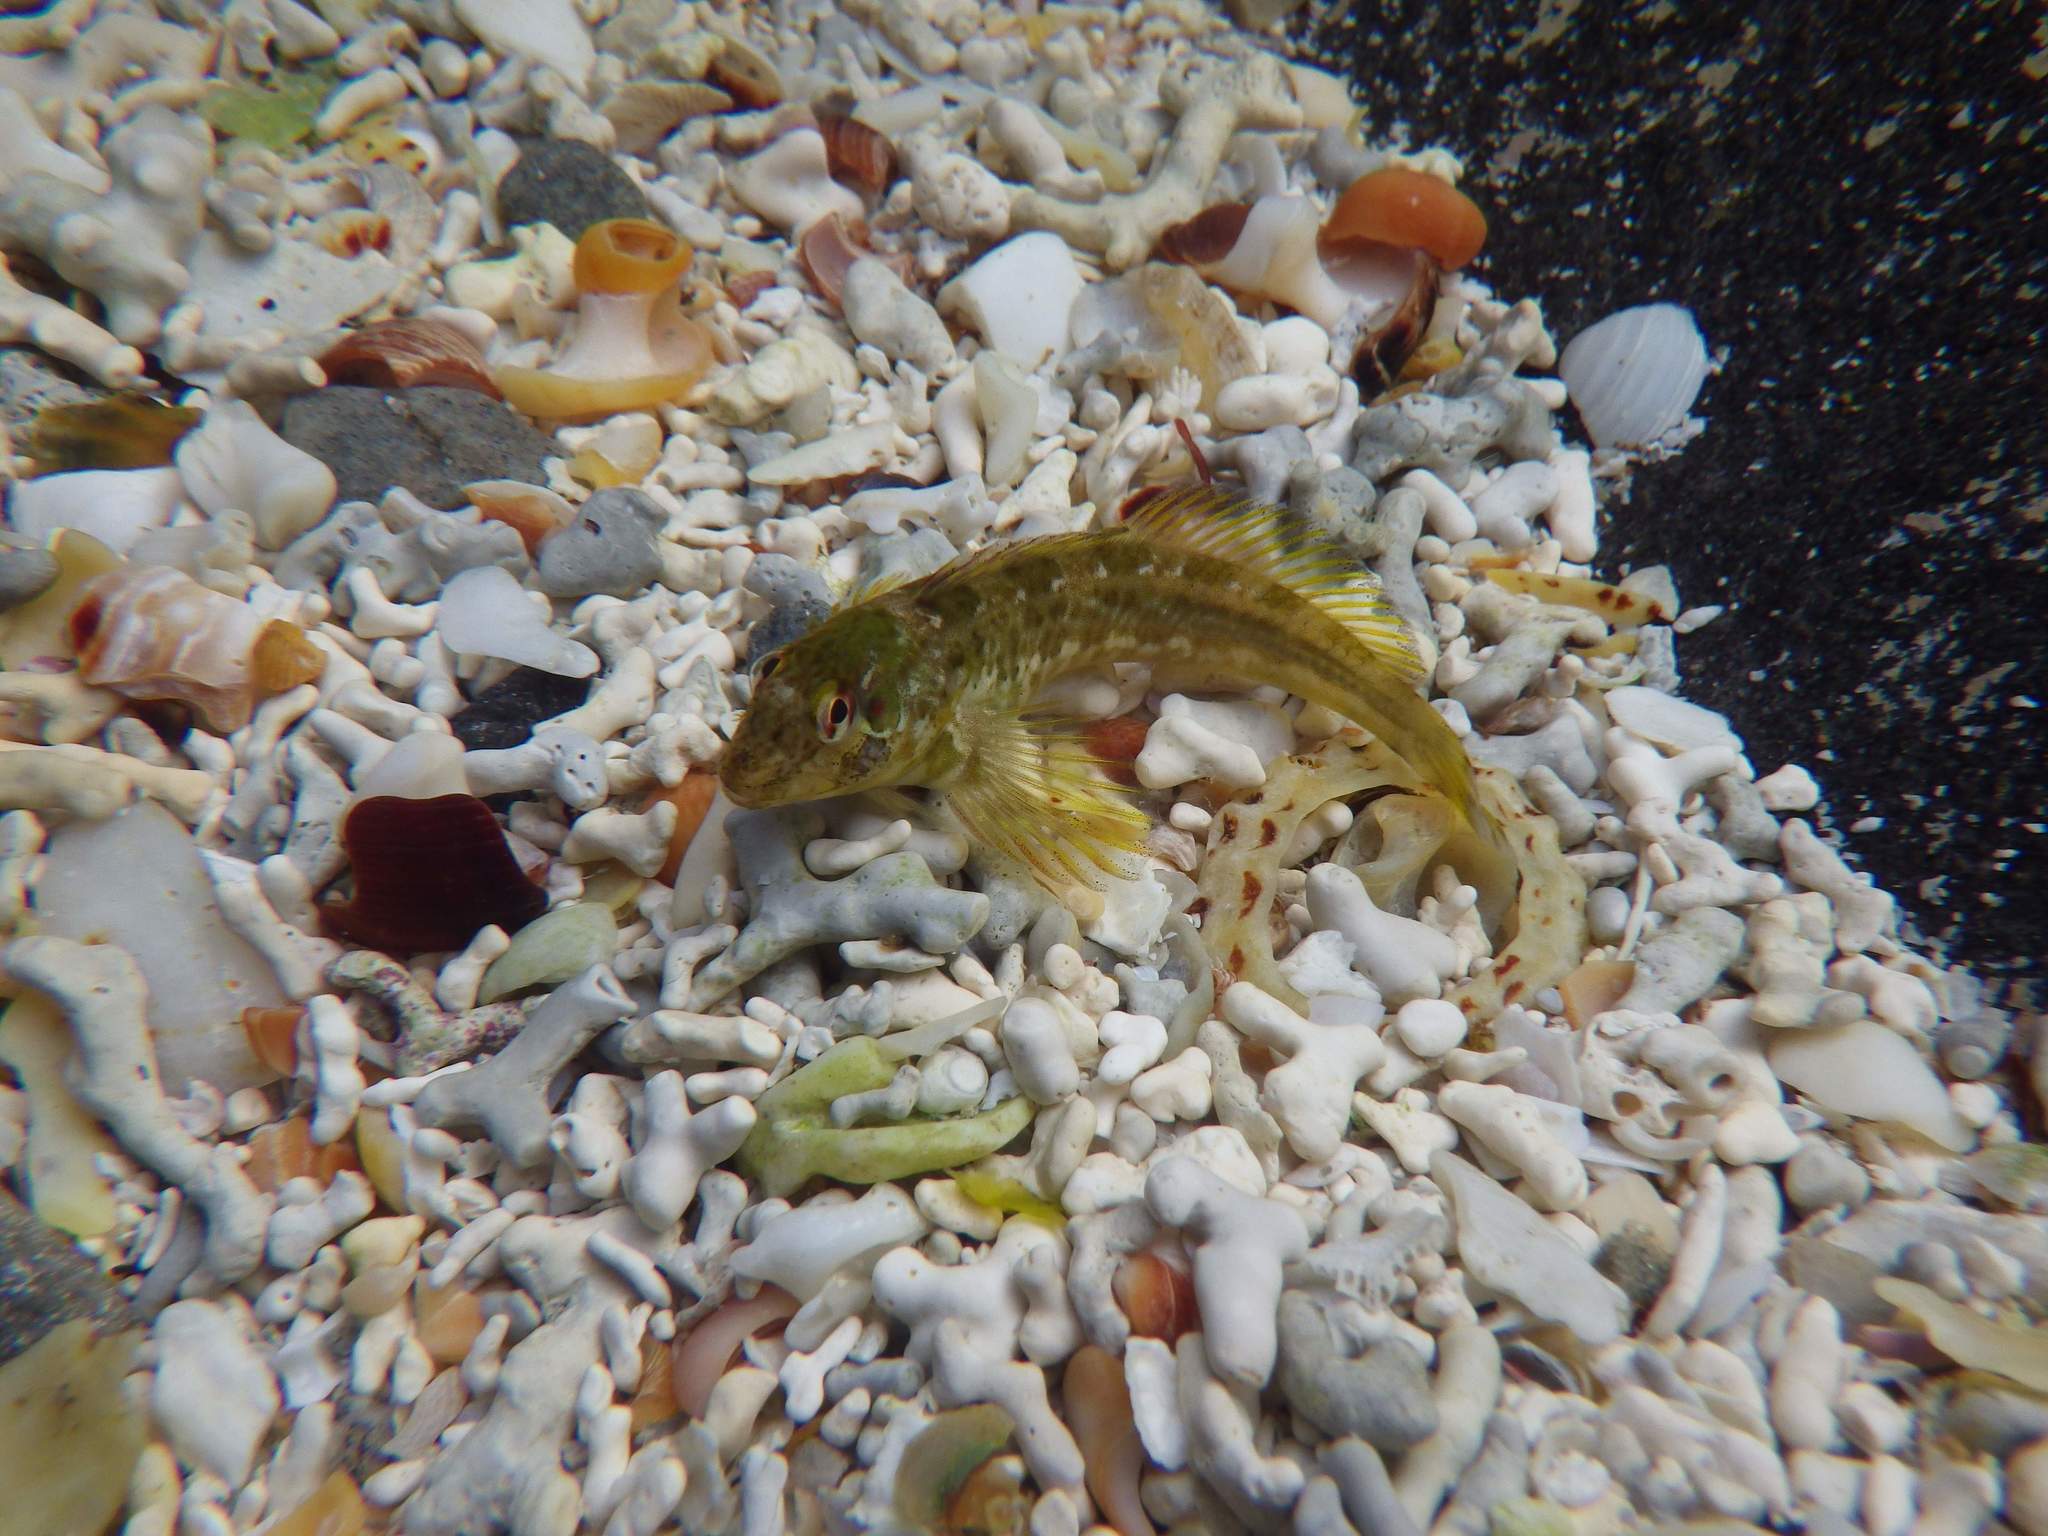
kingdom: Animalia
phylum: Chordata
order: Perciformes
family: Blenniidae
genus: Lipophrys
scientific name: Lipophrys pholis
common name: Shanny
